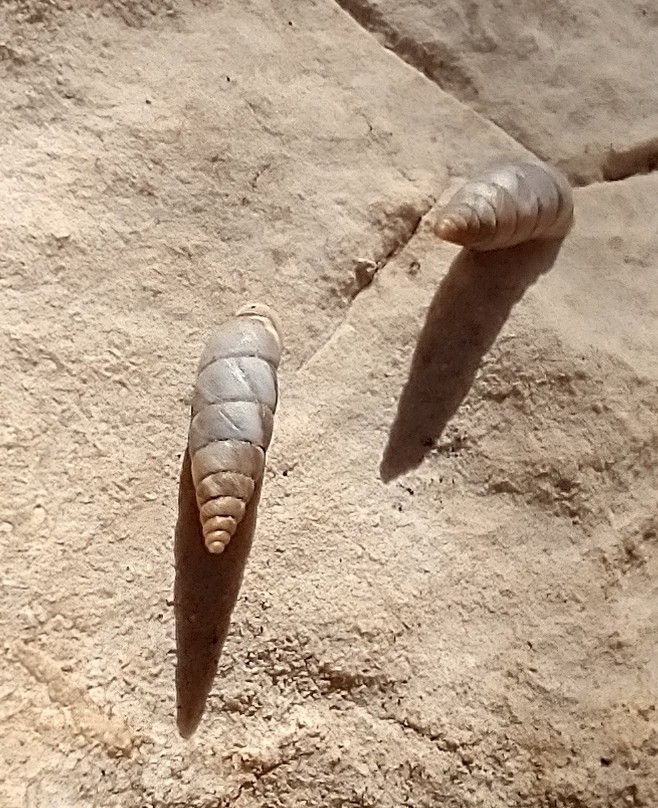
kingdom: Animalia
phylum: Mollusca
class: Gastropoda
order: Stylommatophora
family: Chondrinidae
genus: Solatopupa
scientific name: Solatopupa similis
